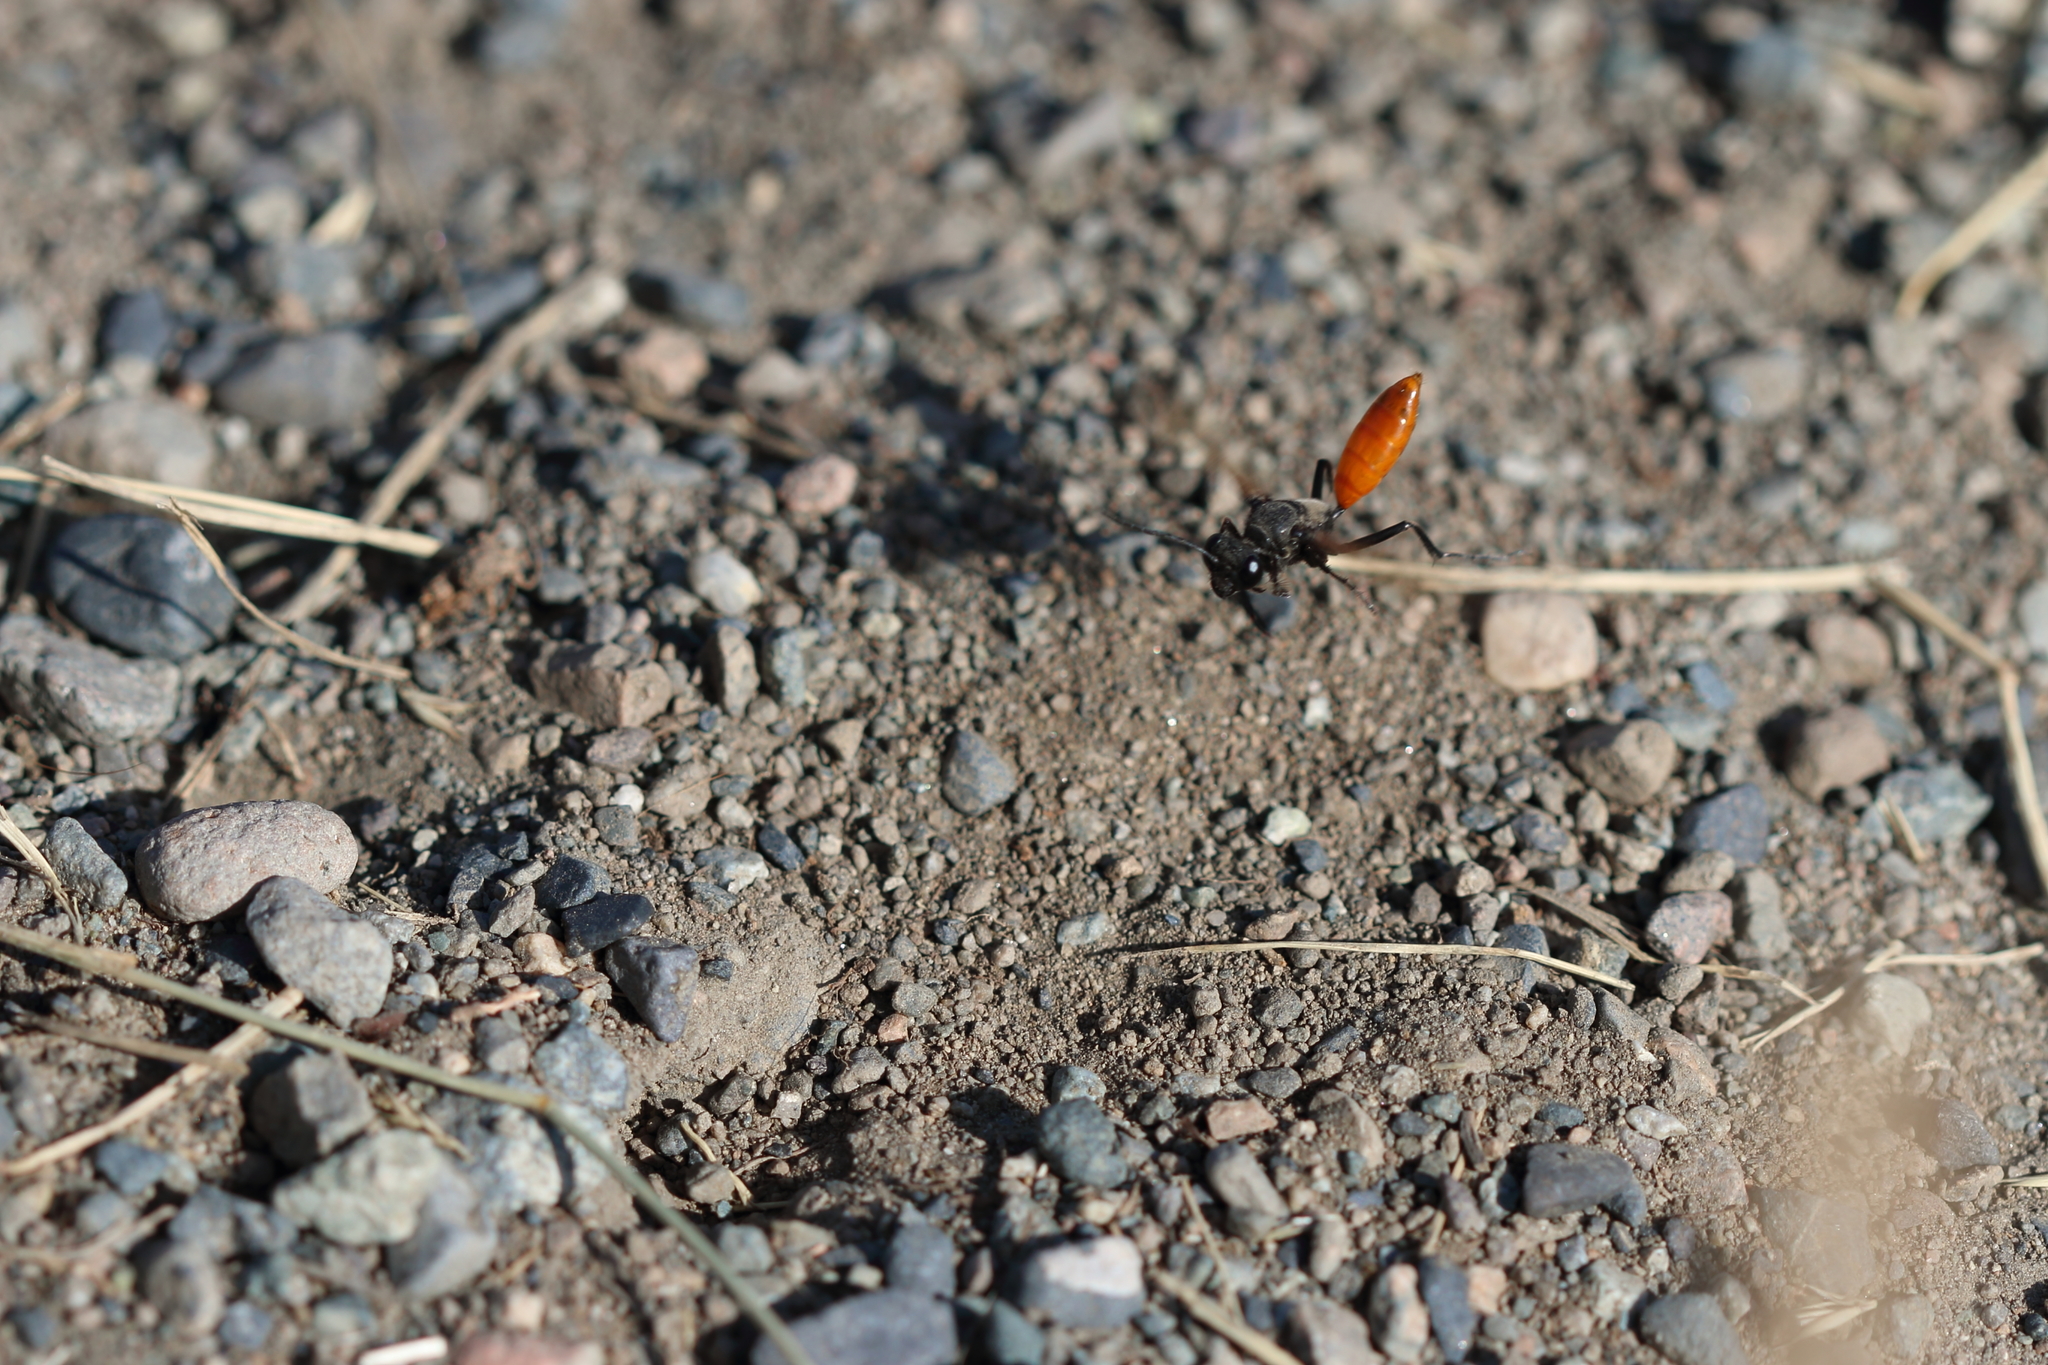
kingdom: Animalia
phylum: Arthropoda
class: Insecta
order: Hymenoptera
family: Sphecidae
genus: Sphex
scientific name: Sphex lucae
